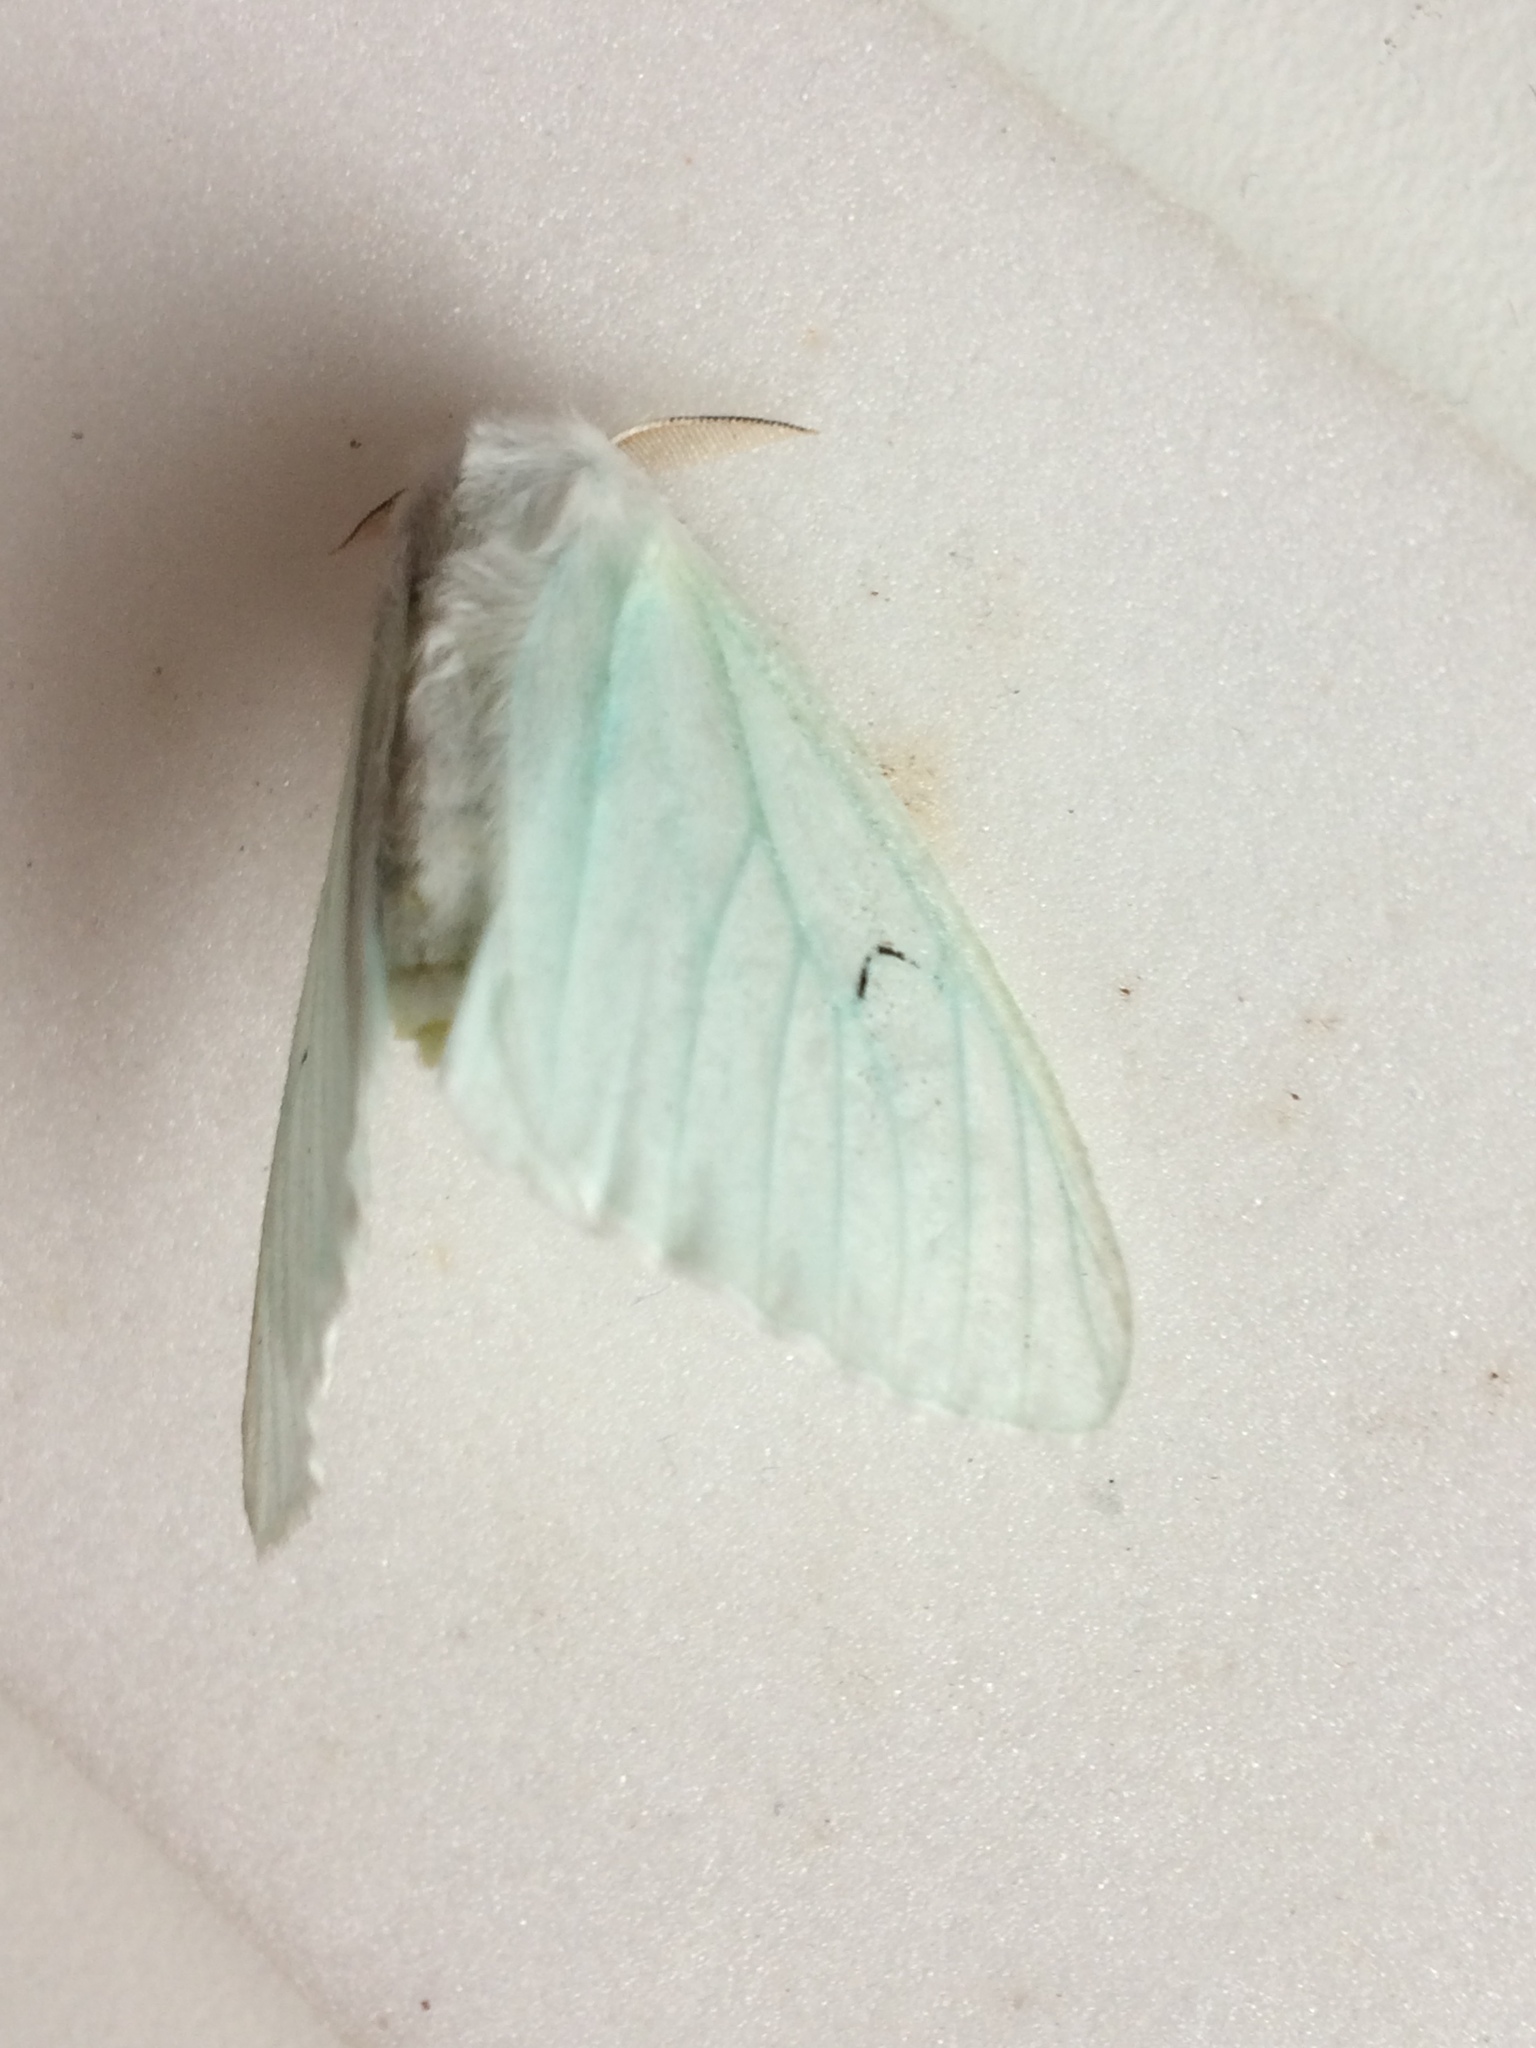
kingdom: Animalia
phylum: Arthropoda
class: Insecta
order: Lepidoptera
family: Erebidae
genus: Arctornis
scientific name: Arctornis l-nigrum
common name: Black v moth
